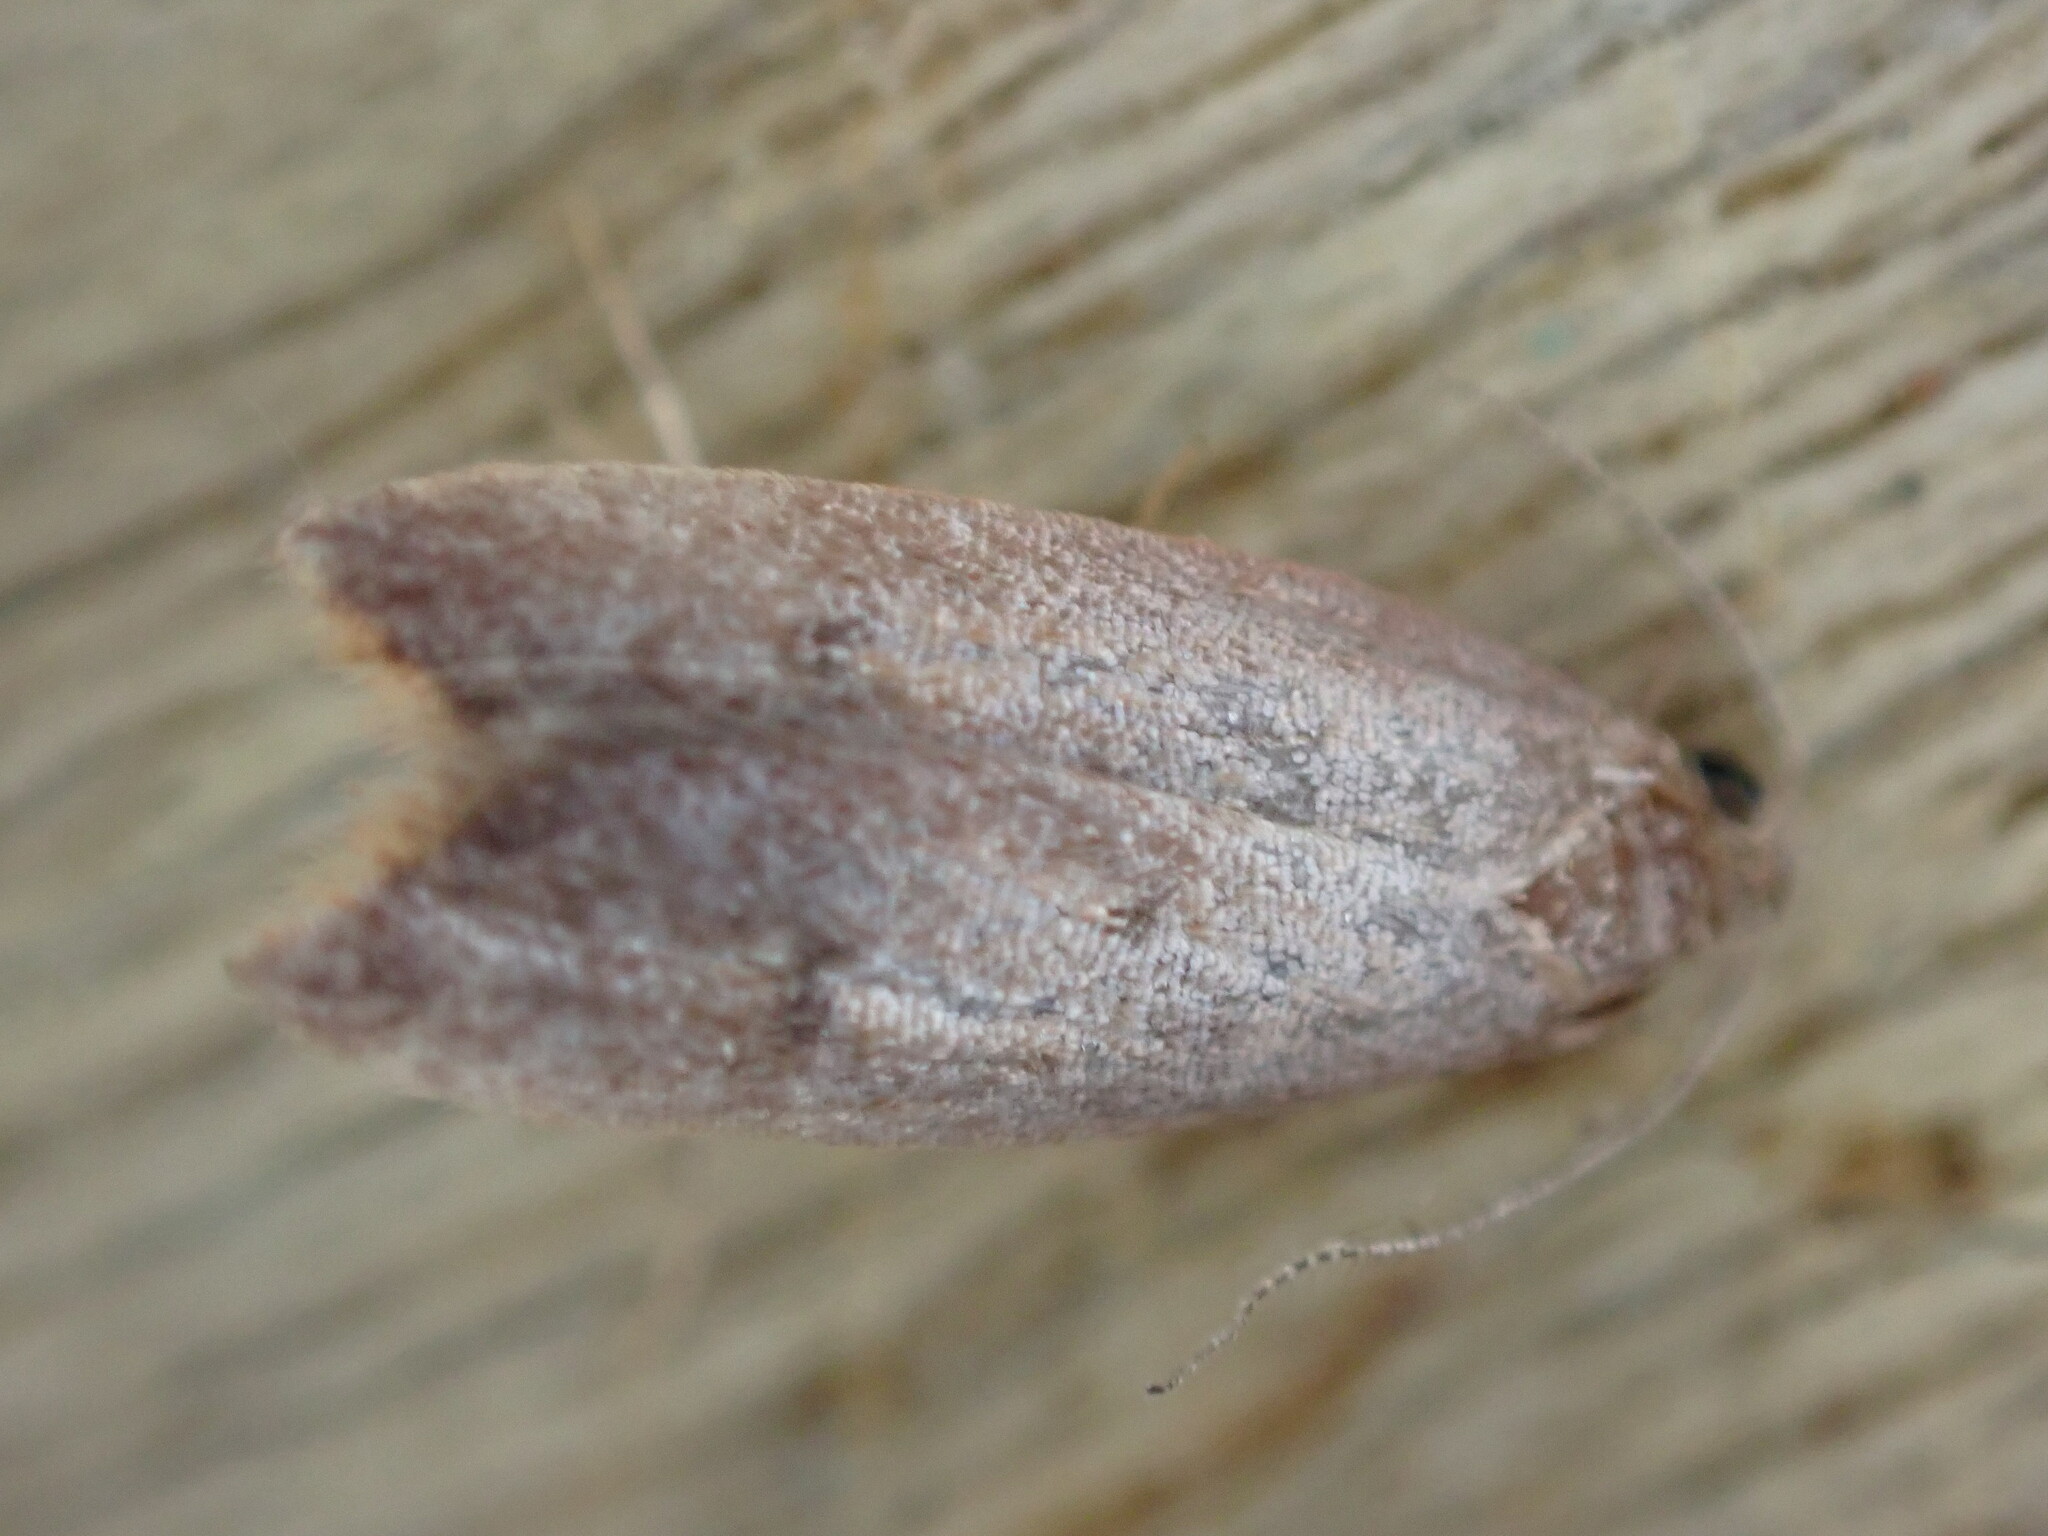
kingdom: Animalia
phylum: Arthropoda
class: Insecta
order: Lepidoptera
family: Oecophoridae
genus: Tachystola
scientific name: Tachystola acroxantha
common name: Ruddy streak
